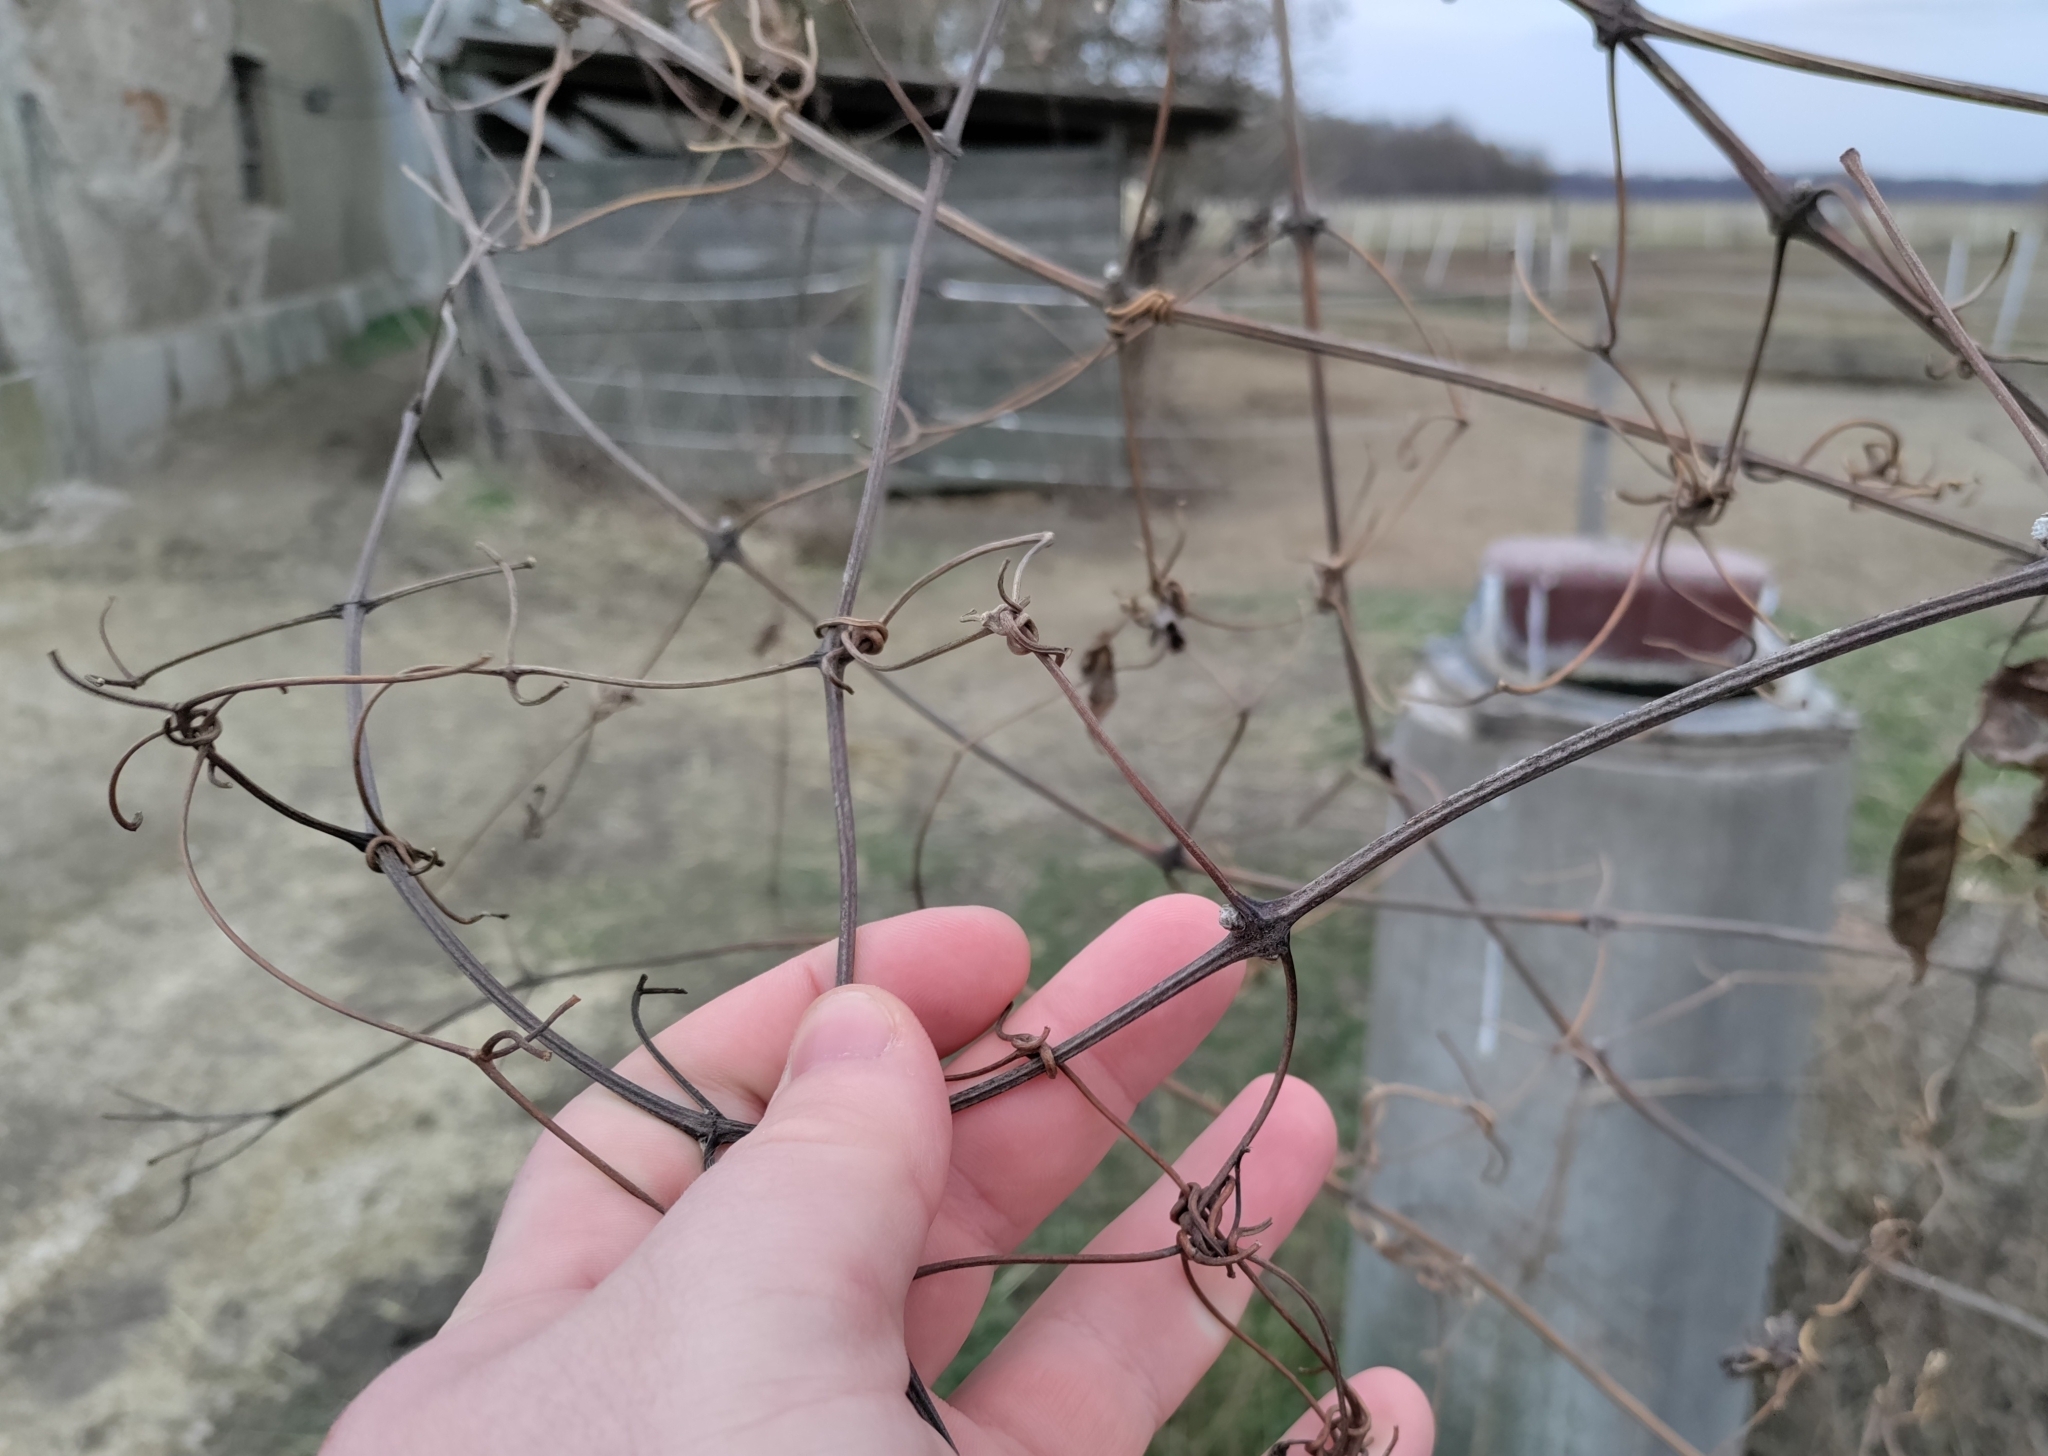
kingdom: Plantae
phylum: Tracheophyta
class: Magnoliopsida
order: Ranunculales
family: Ranunculaceae
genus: Clematis
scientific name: Clematis vitalba
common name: Evergreen clematis
